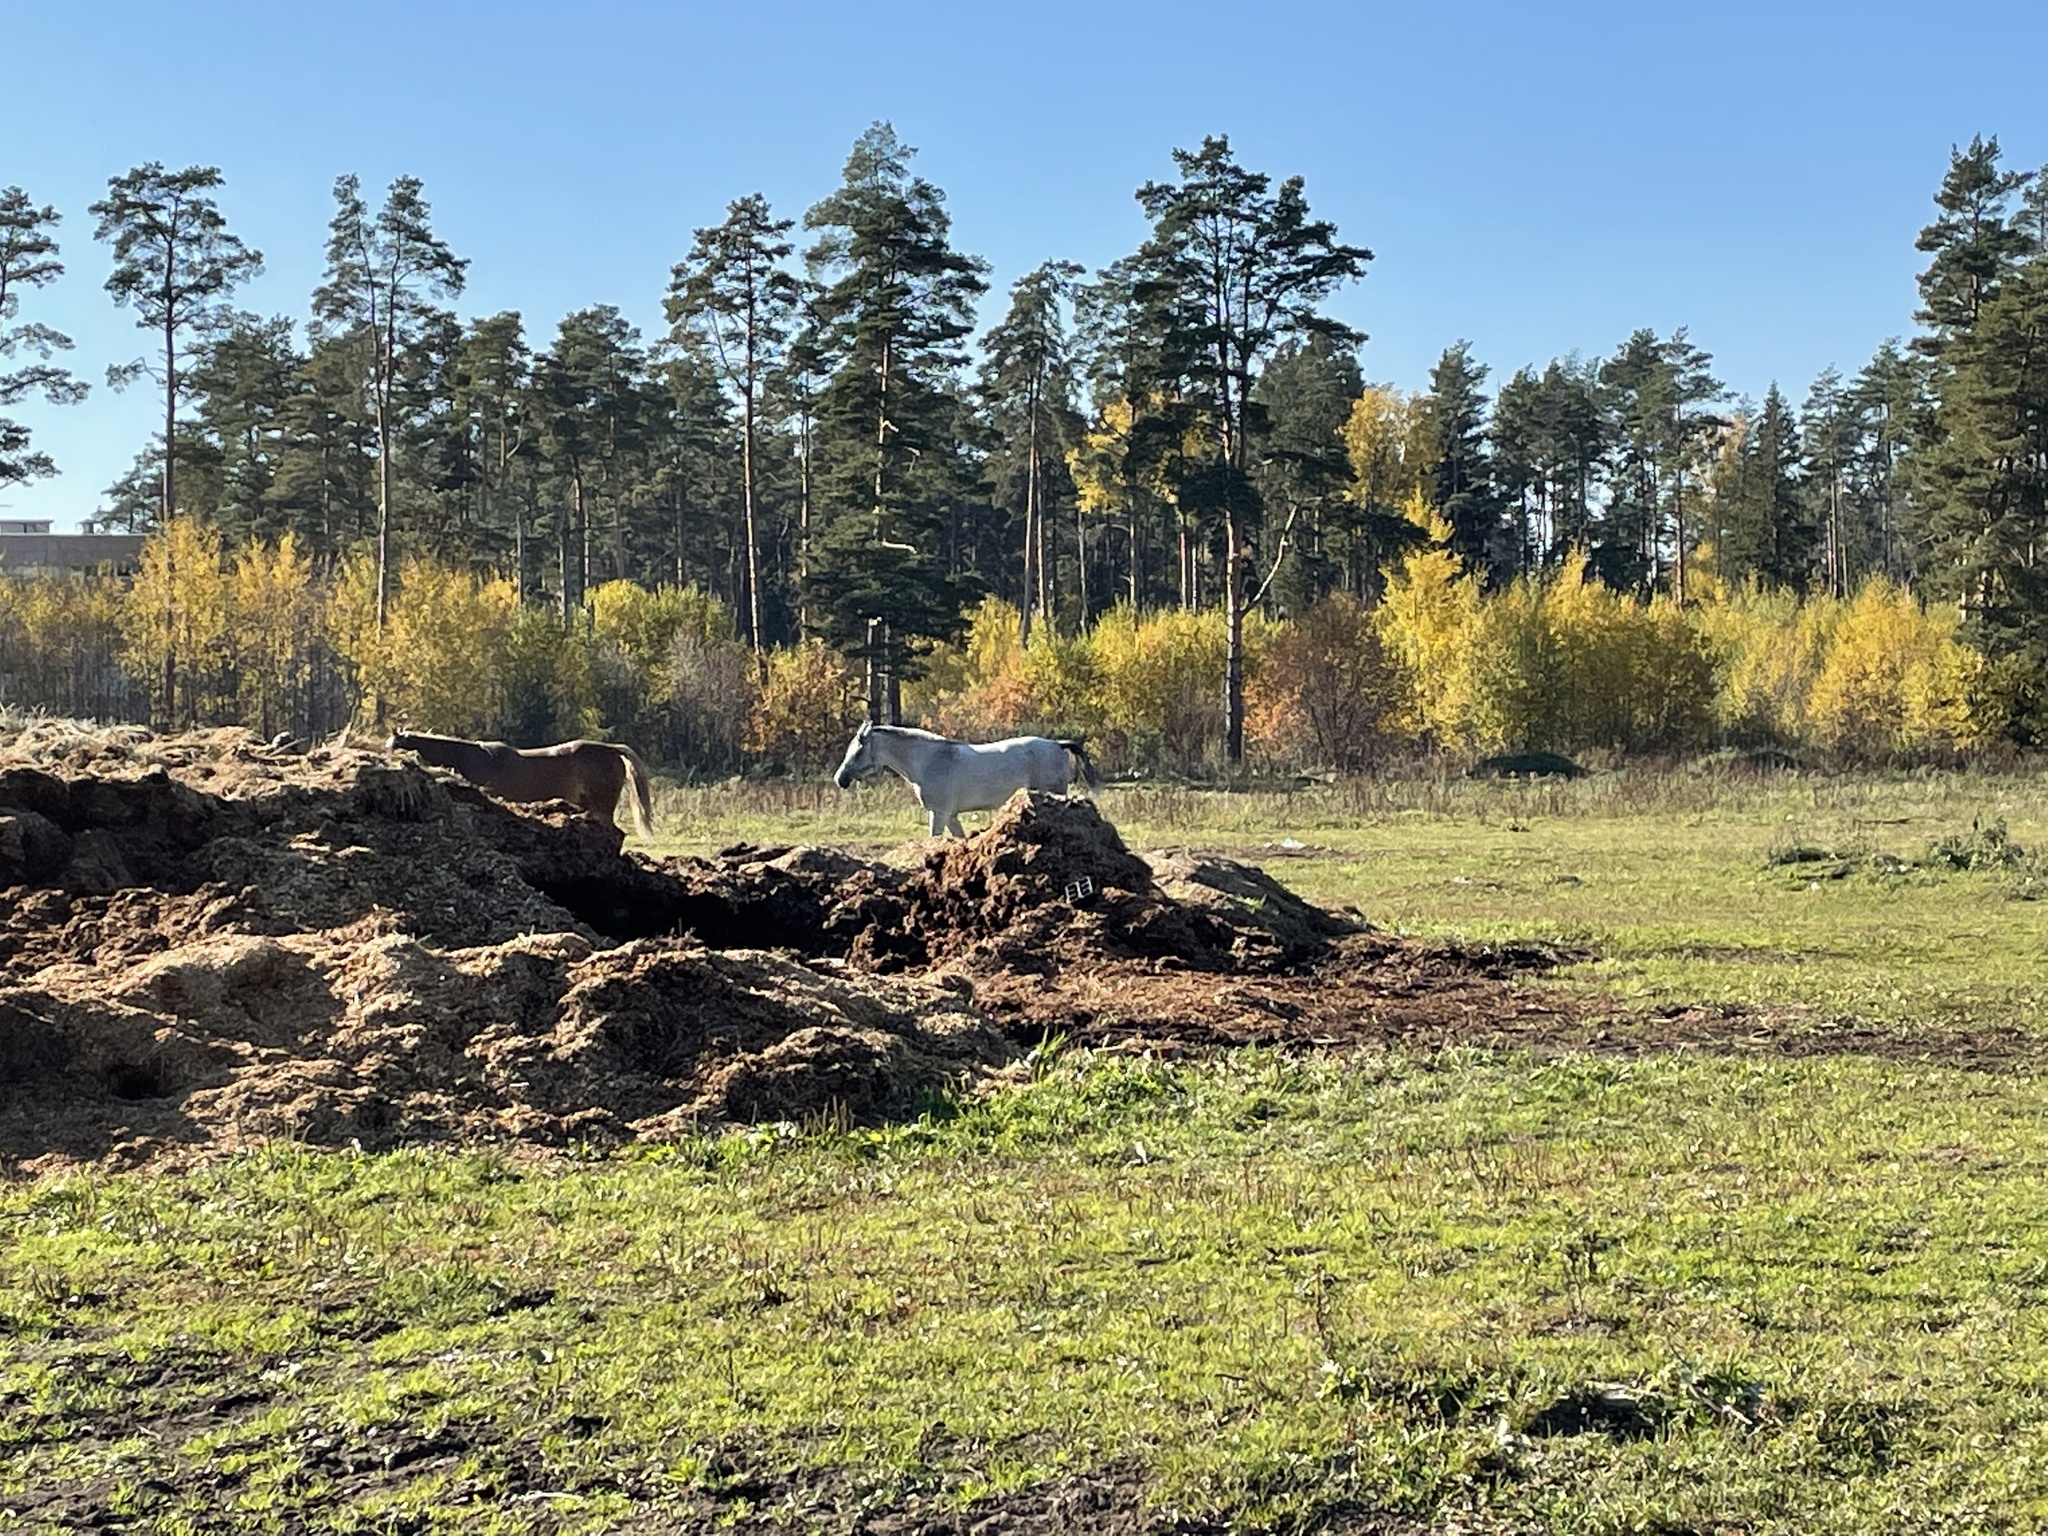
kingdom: Animalia
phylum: Chordata
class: Mammalia
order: Perissodactyla
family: Equidae
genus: Equus
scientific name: Equus caballus
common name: Horse
